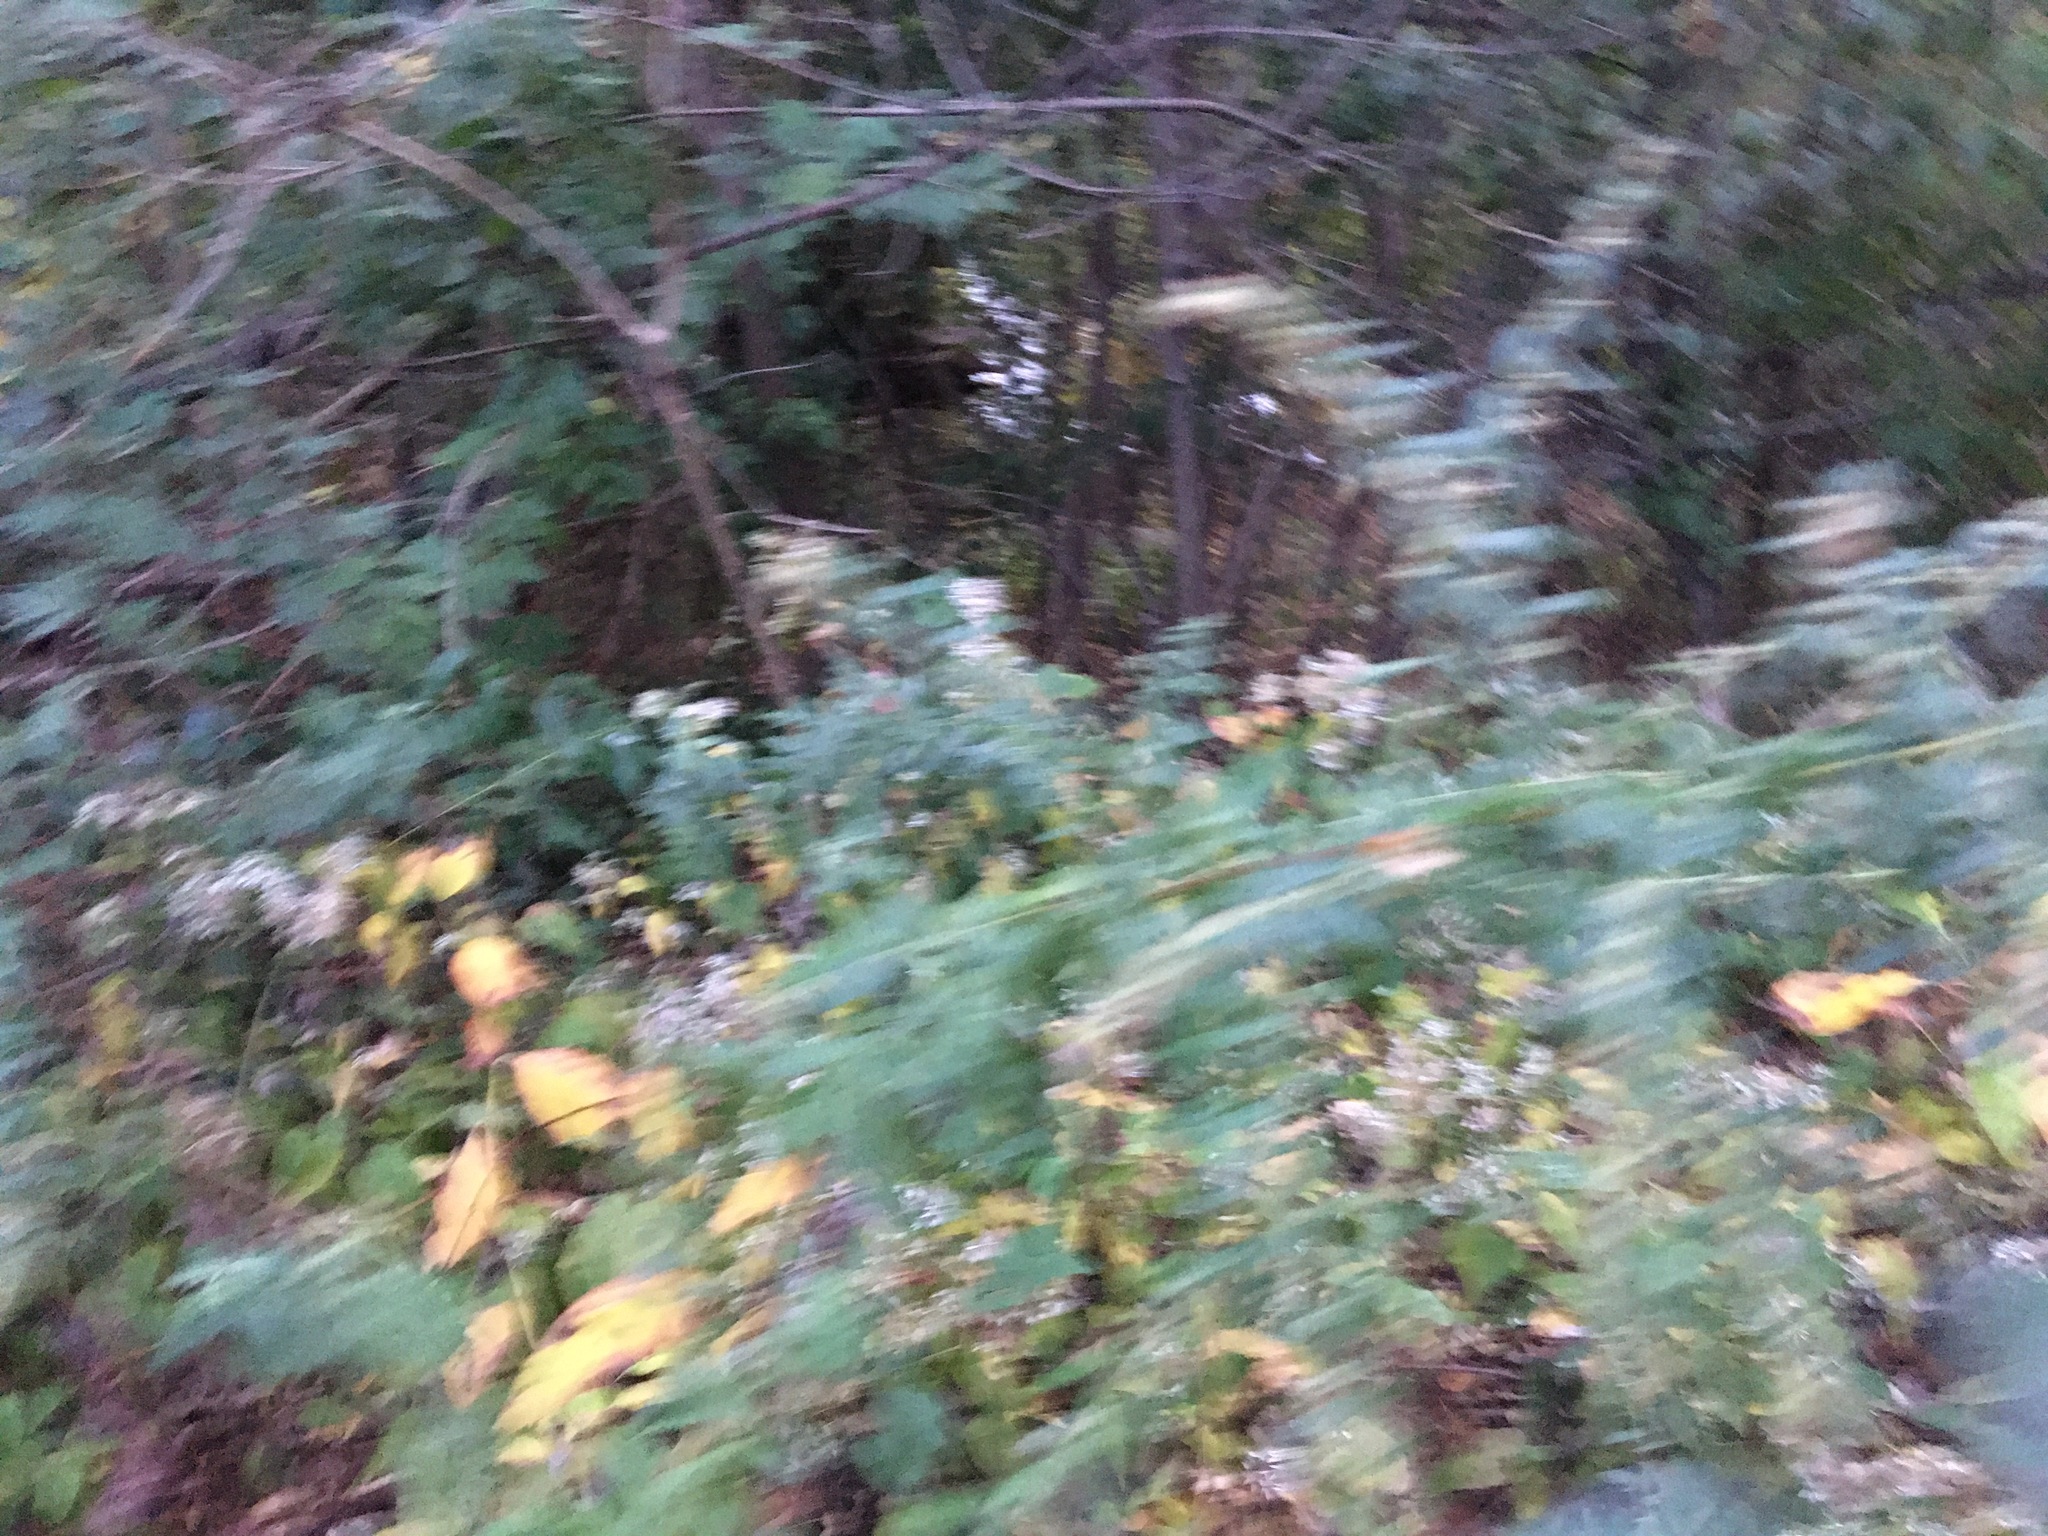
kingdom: Plantae
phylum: Tracheophyta
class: Magnoliopsida
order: Asterales
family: Asteraceae
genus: Artemisia
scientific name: Artemisia vulgaris
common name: Mugwort
